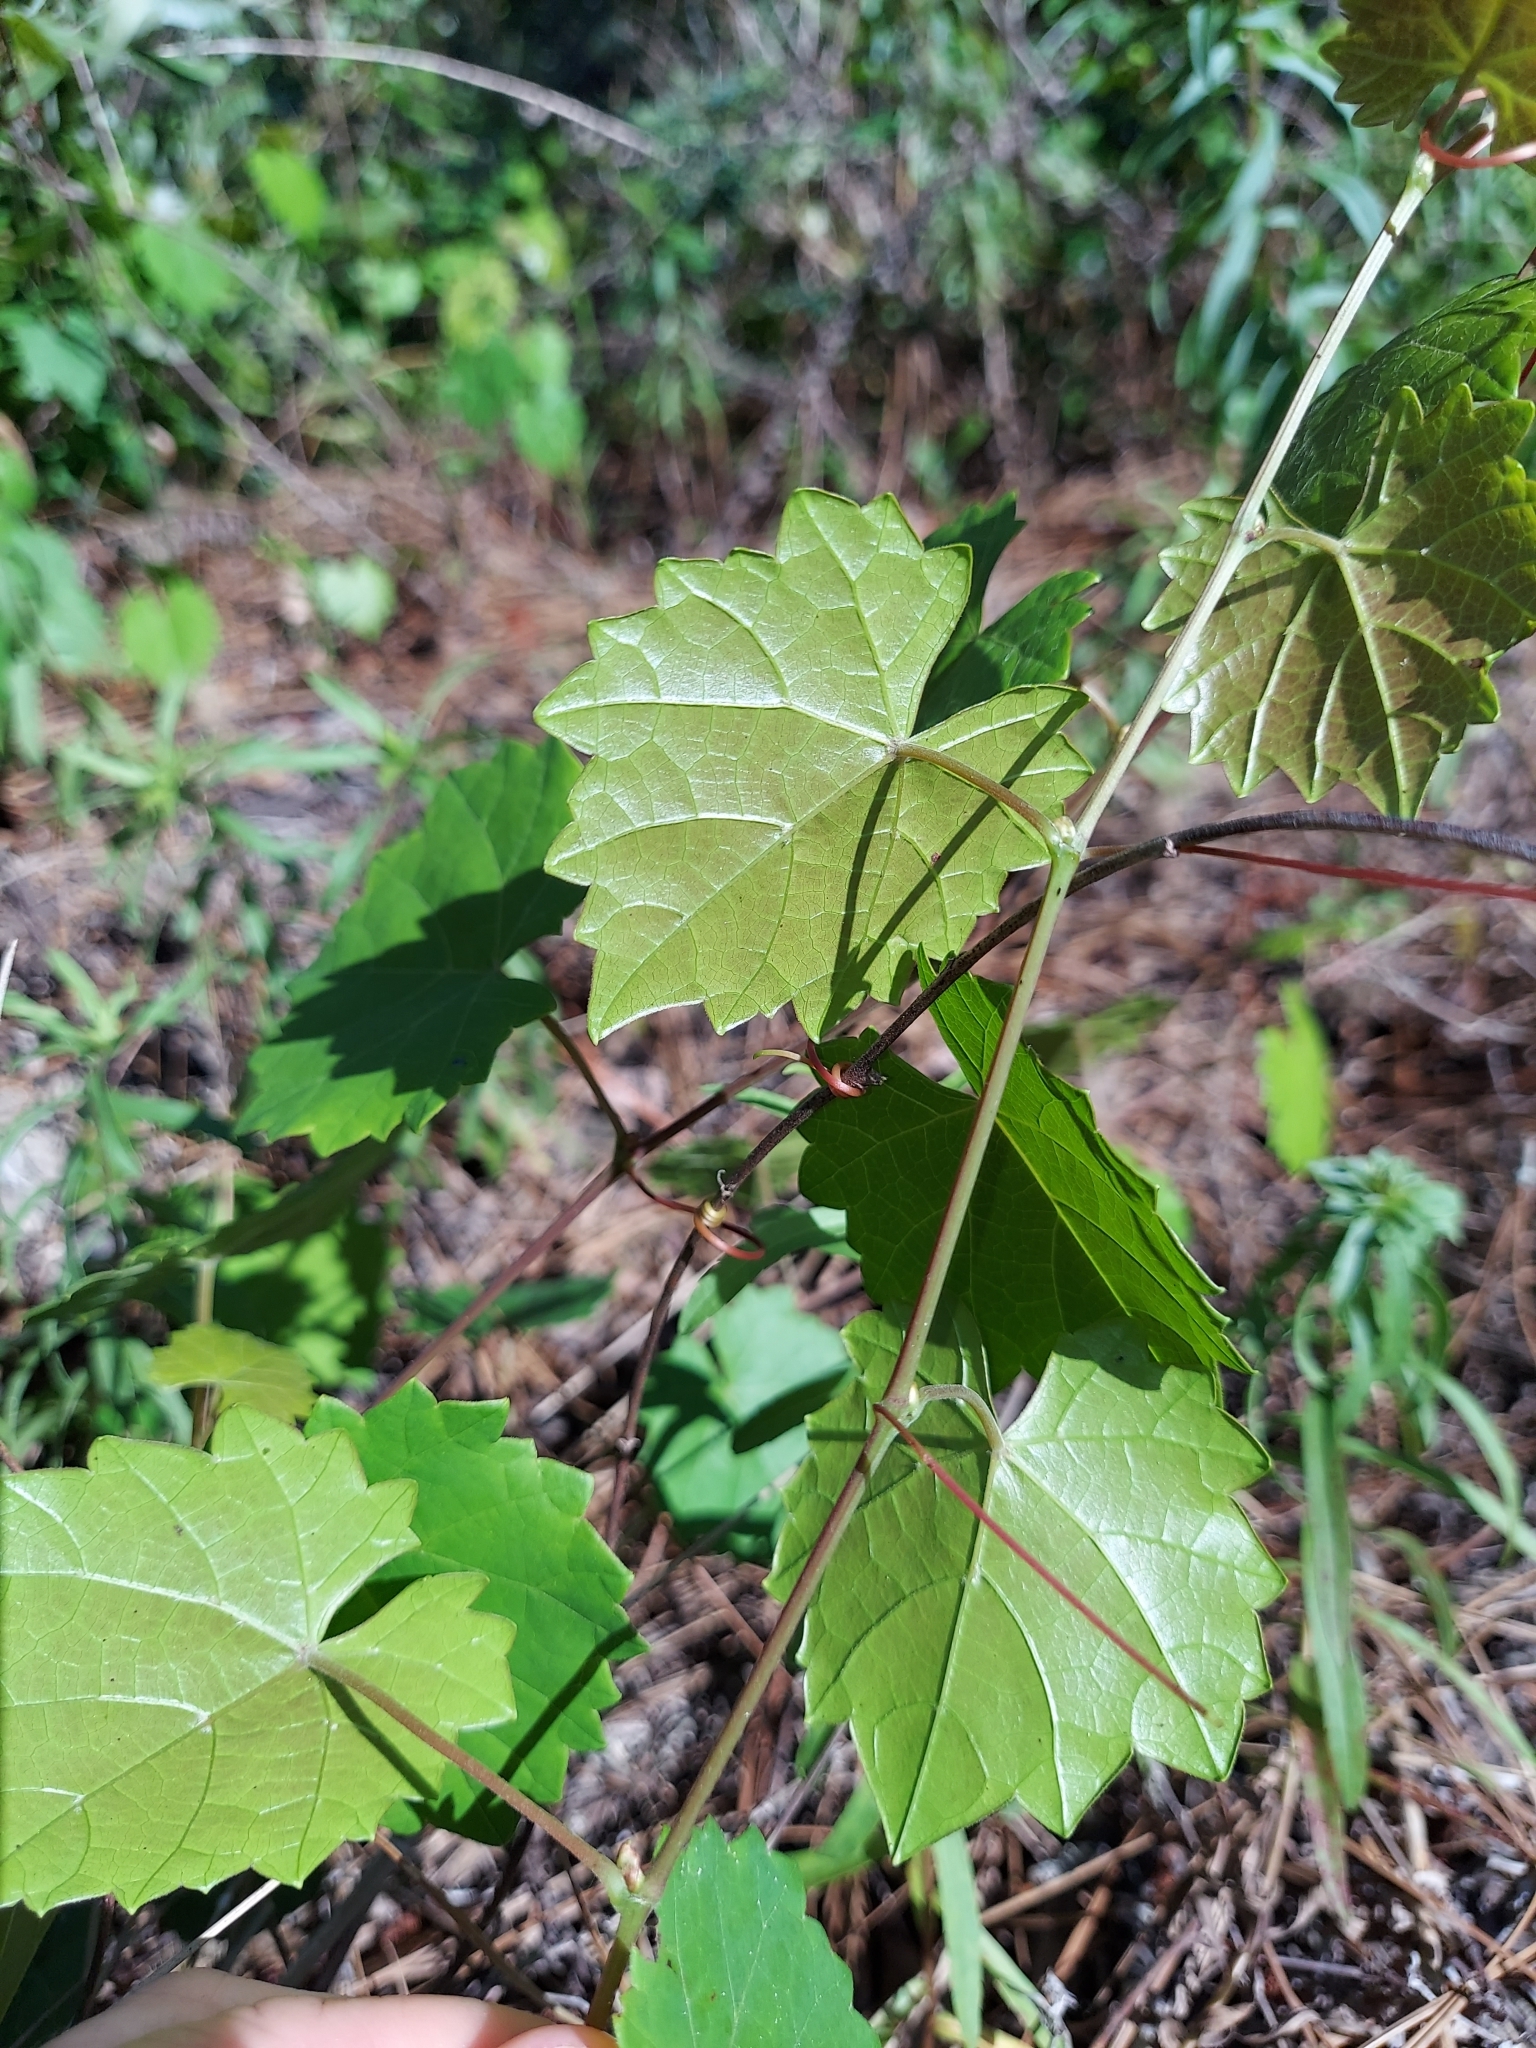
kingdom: Plantae
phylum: Tracheophyta
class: Magnoliopsida
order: Vitales
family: Vitaceae
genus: Vitis
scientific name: Vitis rotundifolia
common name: Muscadine grape
